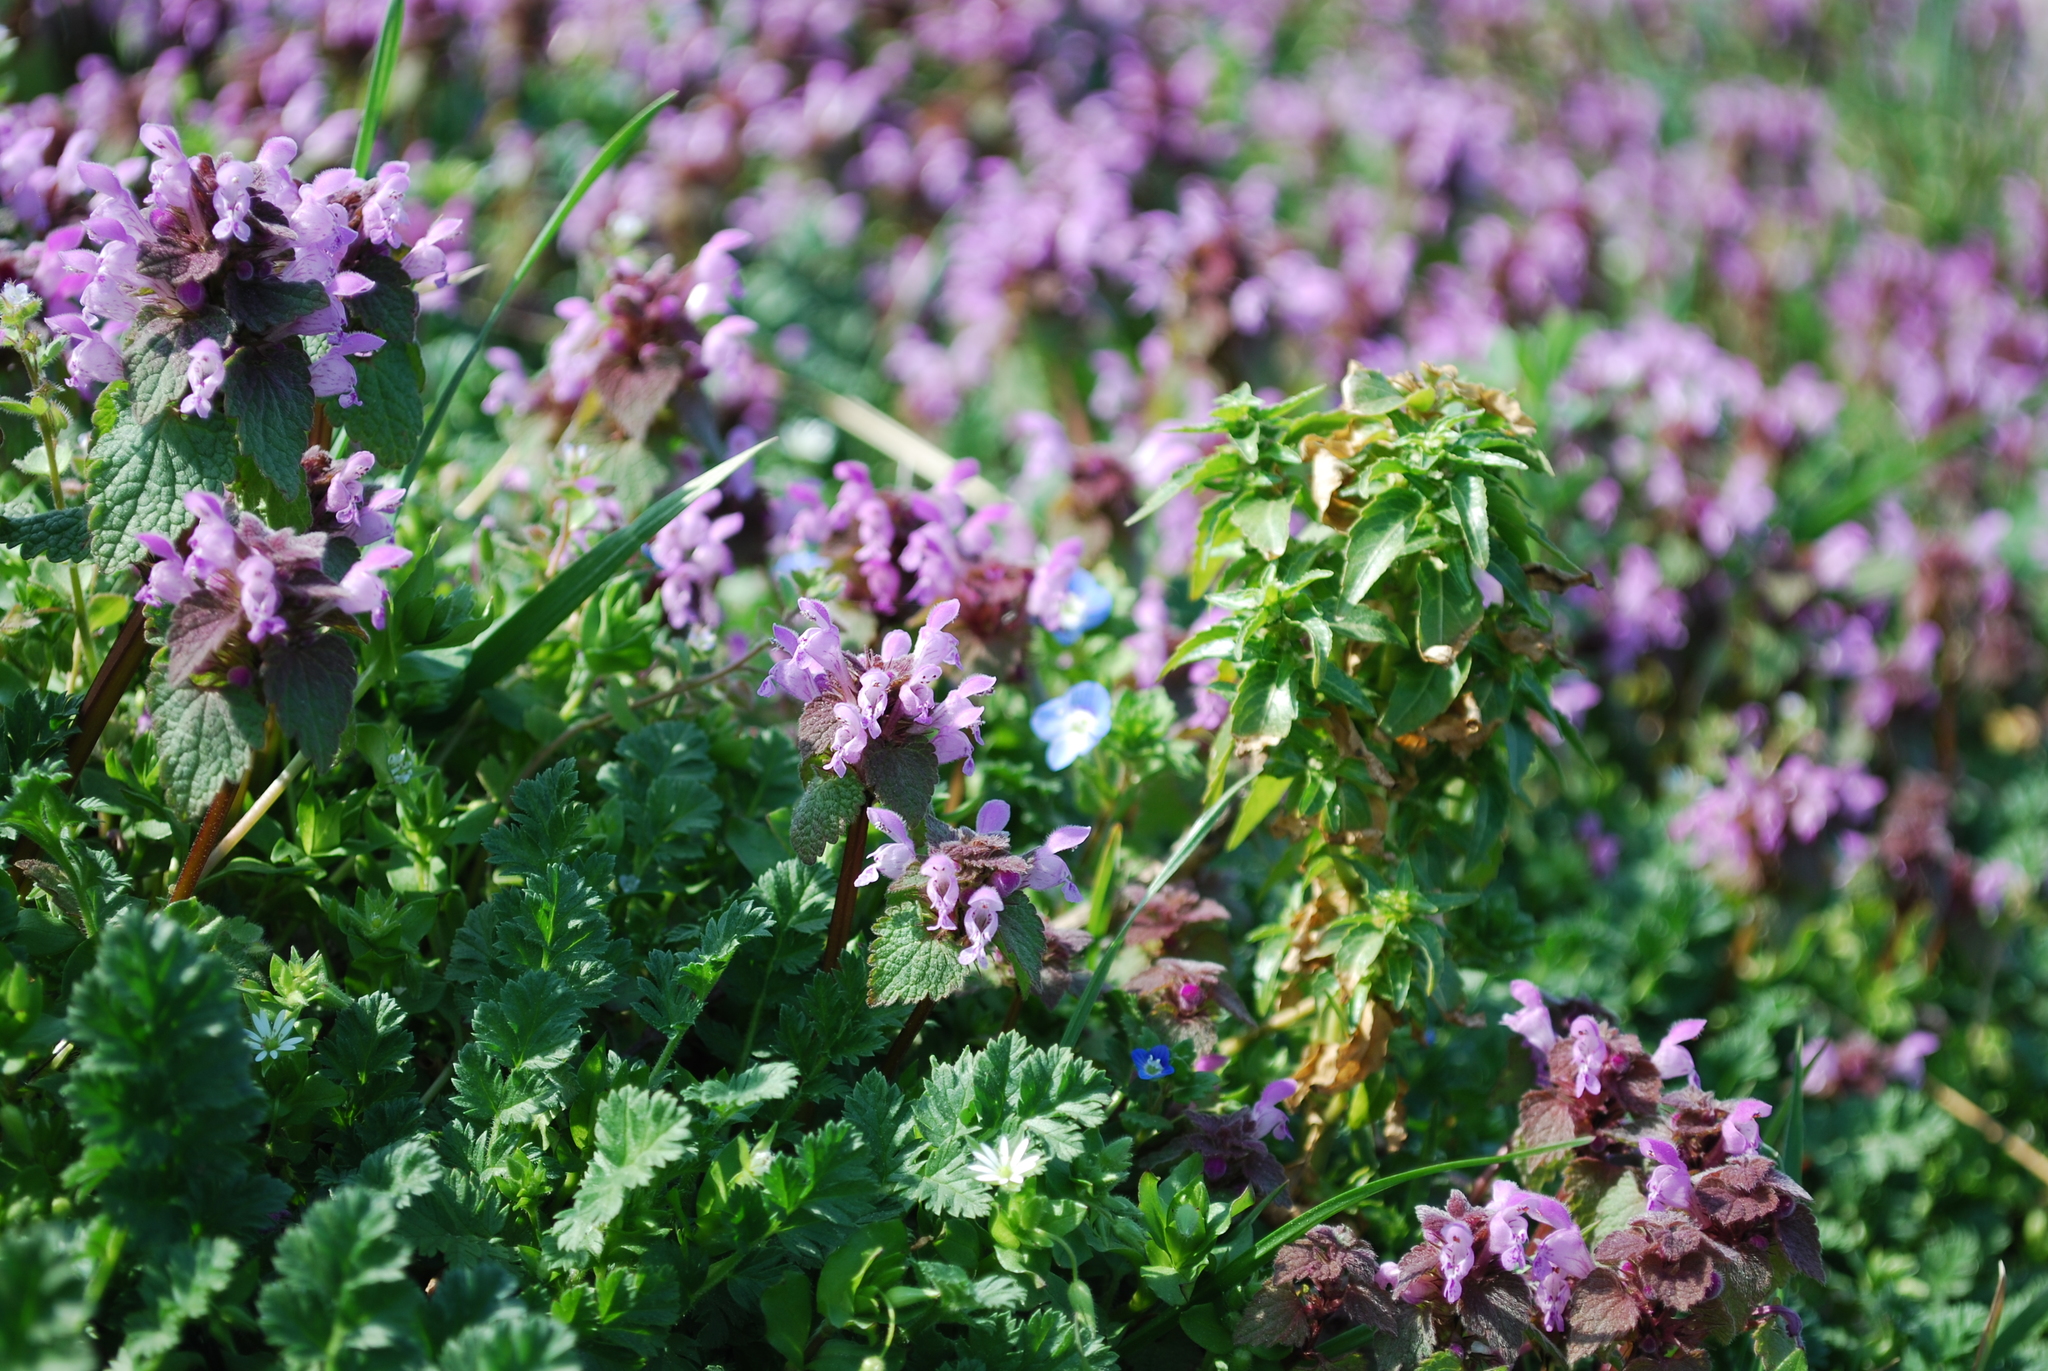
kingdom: Plantae
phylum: Tracheophyta
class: Magnoliopsida
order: Lamiales
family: Lamiaceae
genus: Lamium
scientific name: Lamium purpureum
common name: Red dead-nettle
